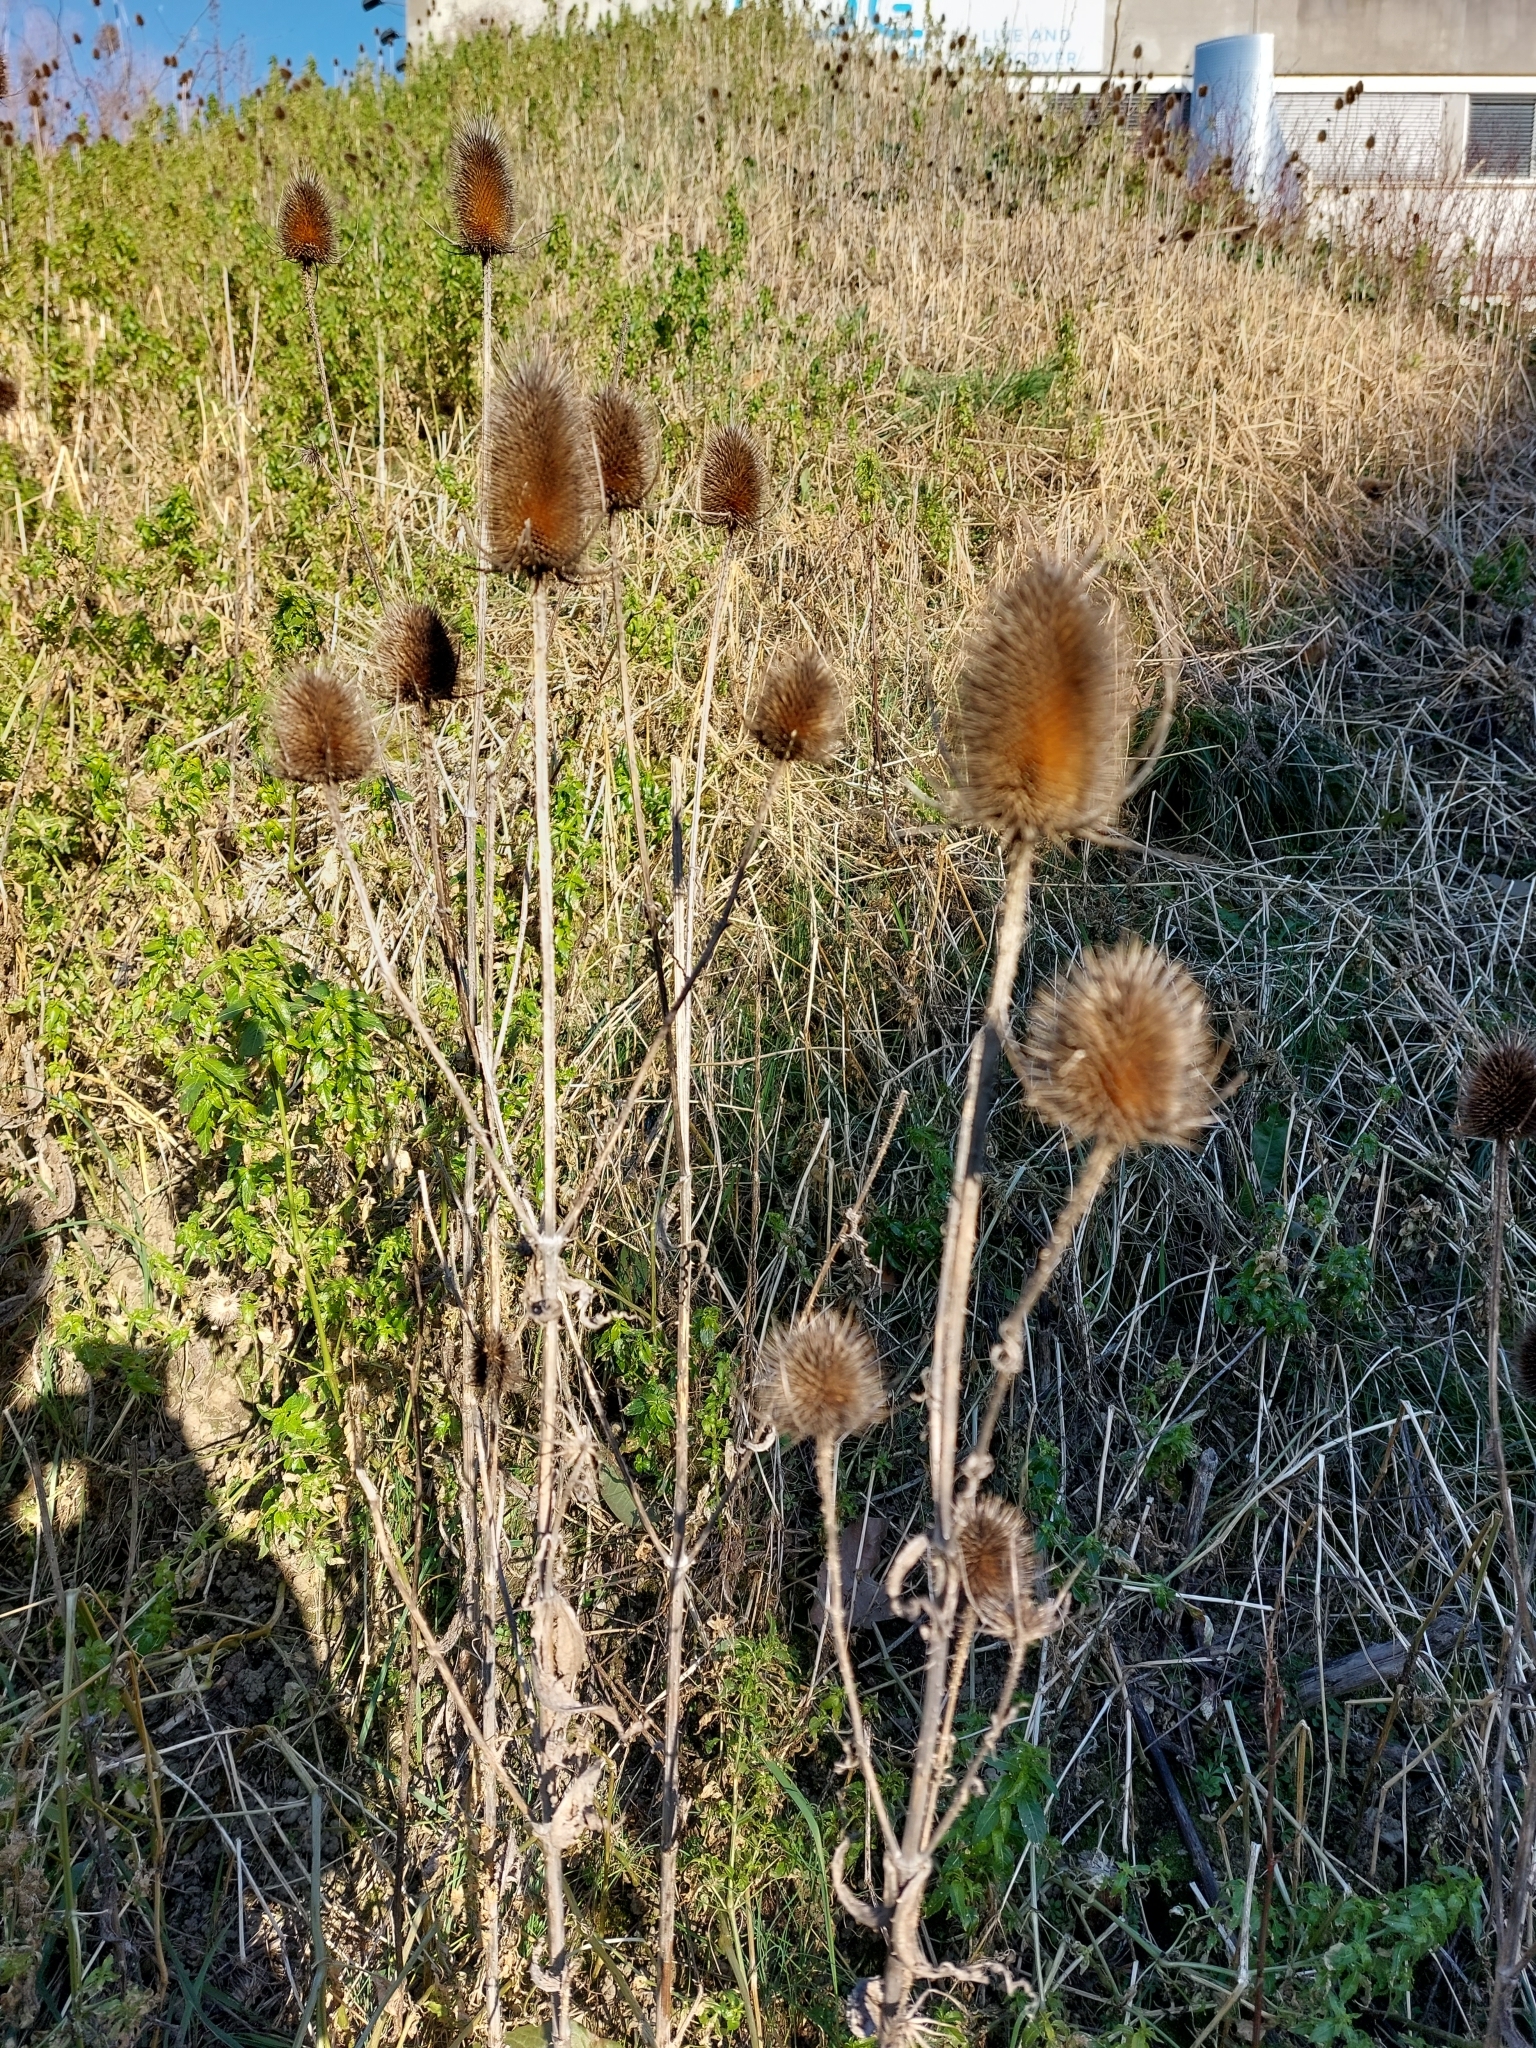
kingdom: Plantae
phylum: Tracheophyta
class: Magnoliopsida
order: Dipsacales
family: Caprifoliaceae
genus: Dipsacus
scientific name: Dipsacus fullonum
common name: Teasel
